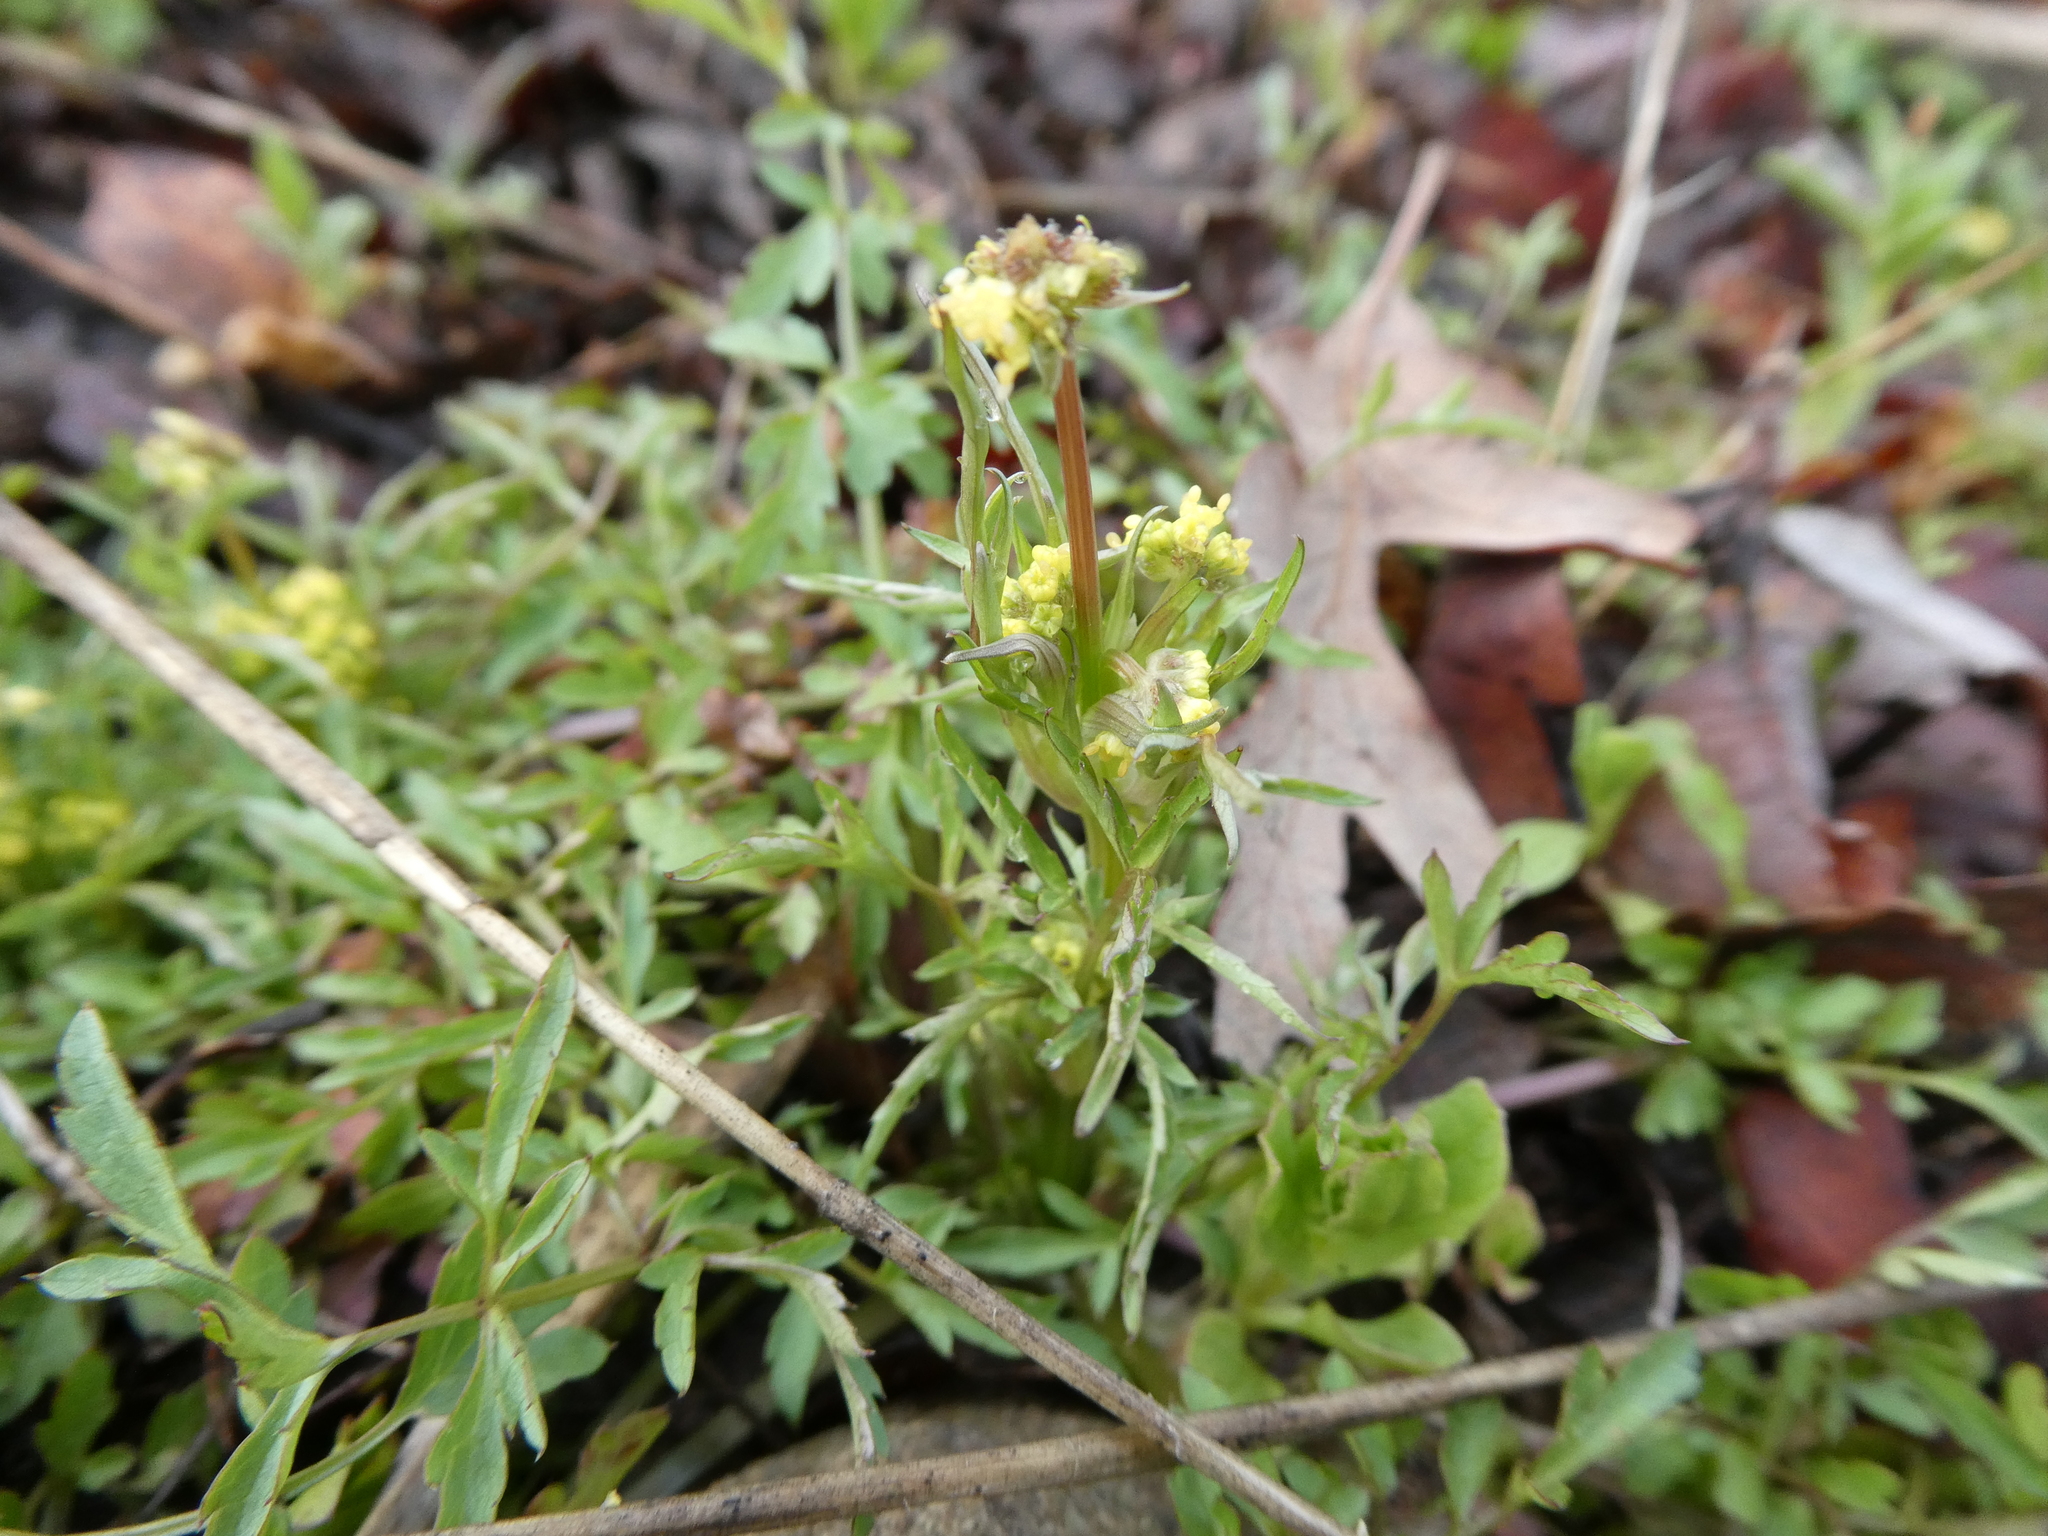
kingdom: Plantae
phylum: Tracheophyta
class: Magnoliopsida
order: Apiales
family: Apiaceae
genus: Sanicula
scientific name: Sanicula bipinnata
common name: Poison sanicle
